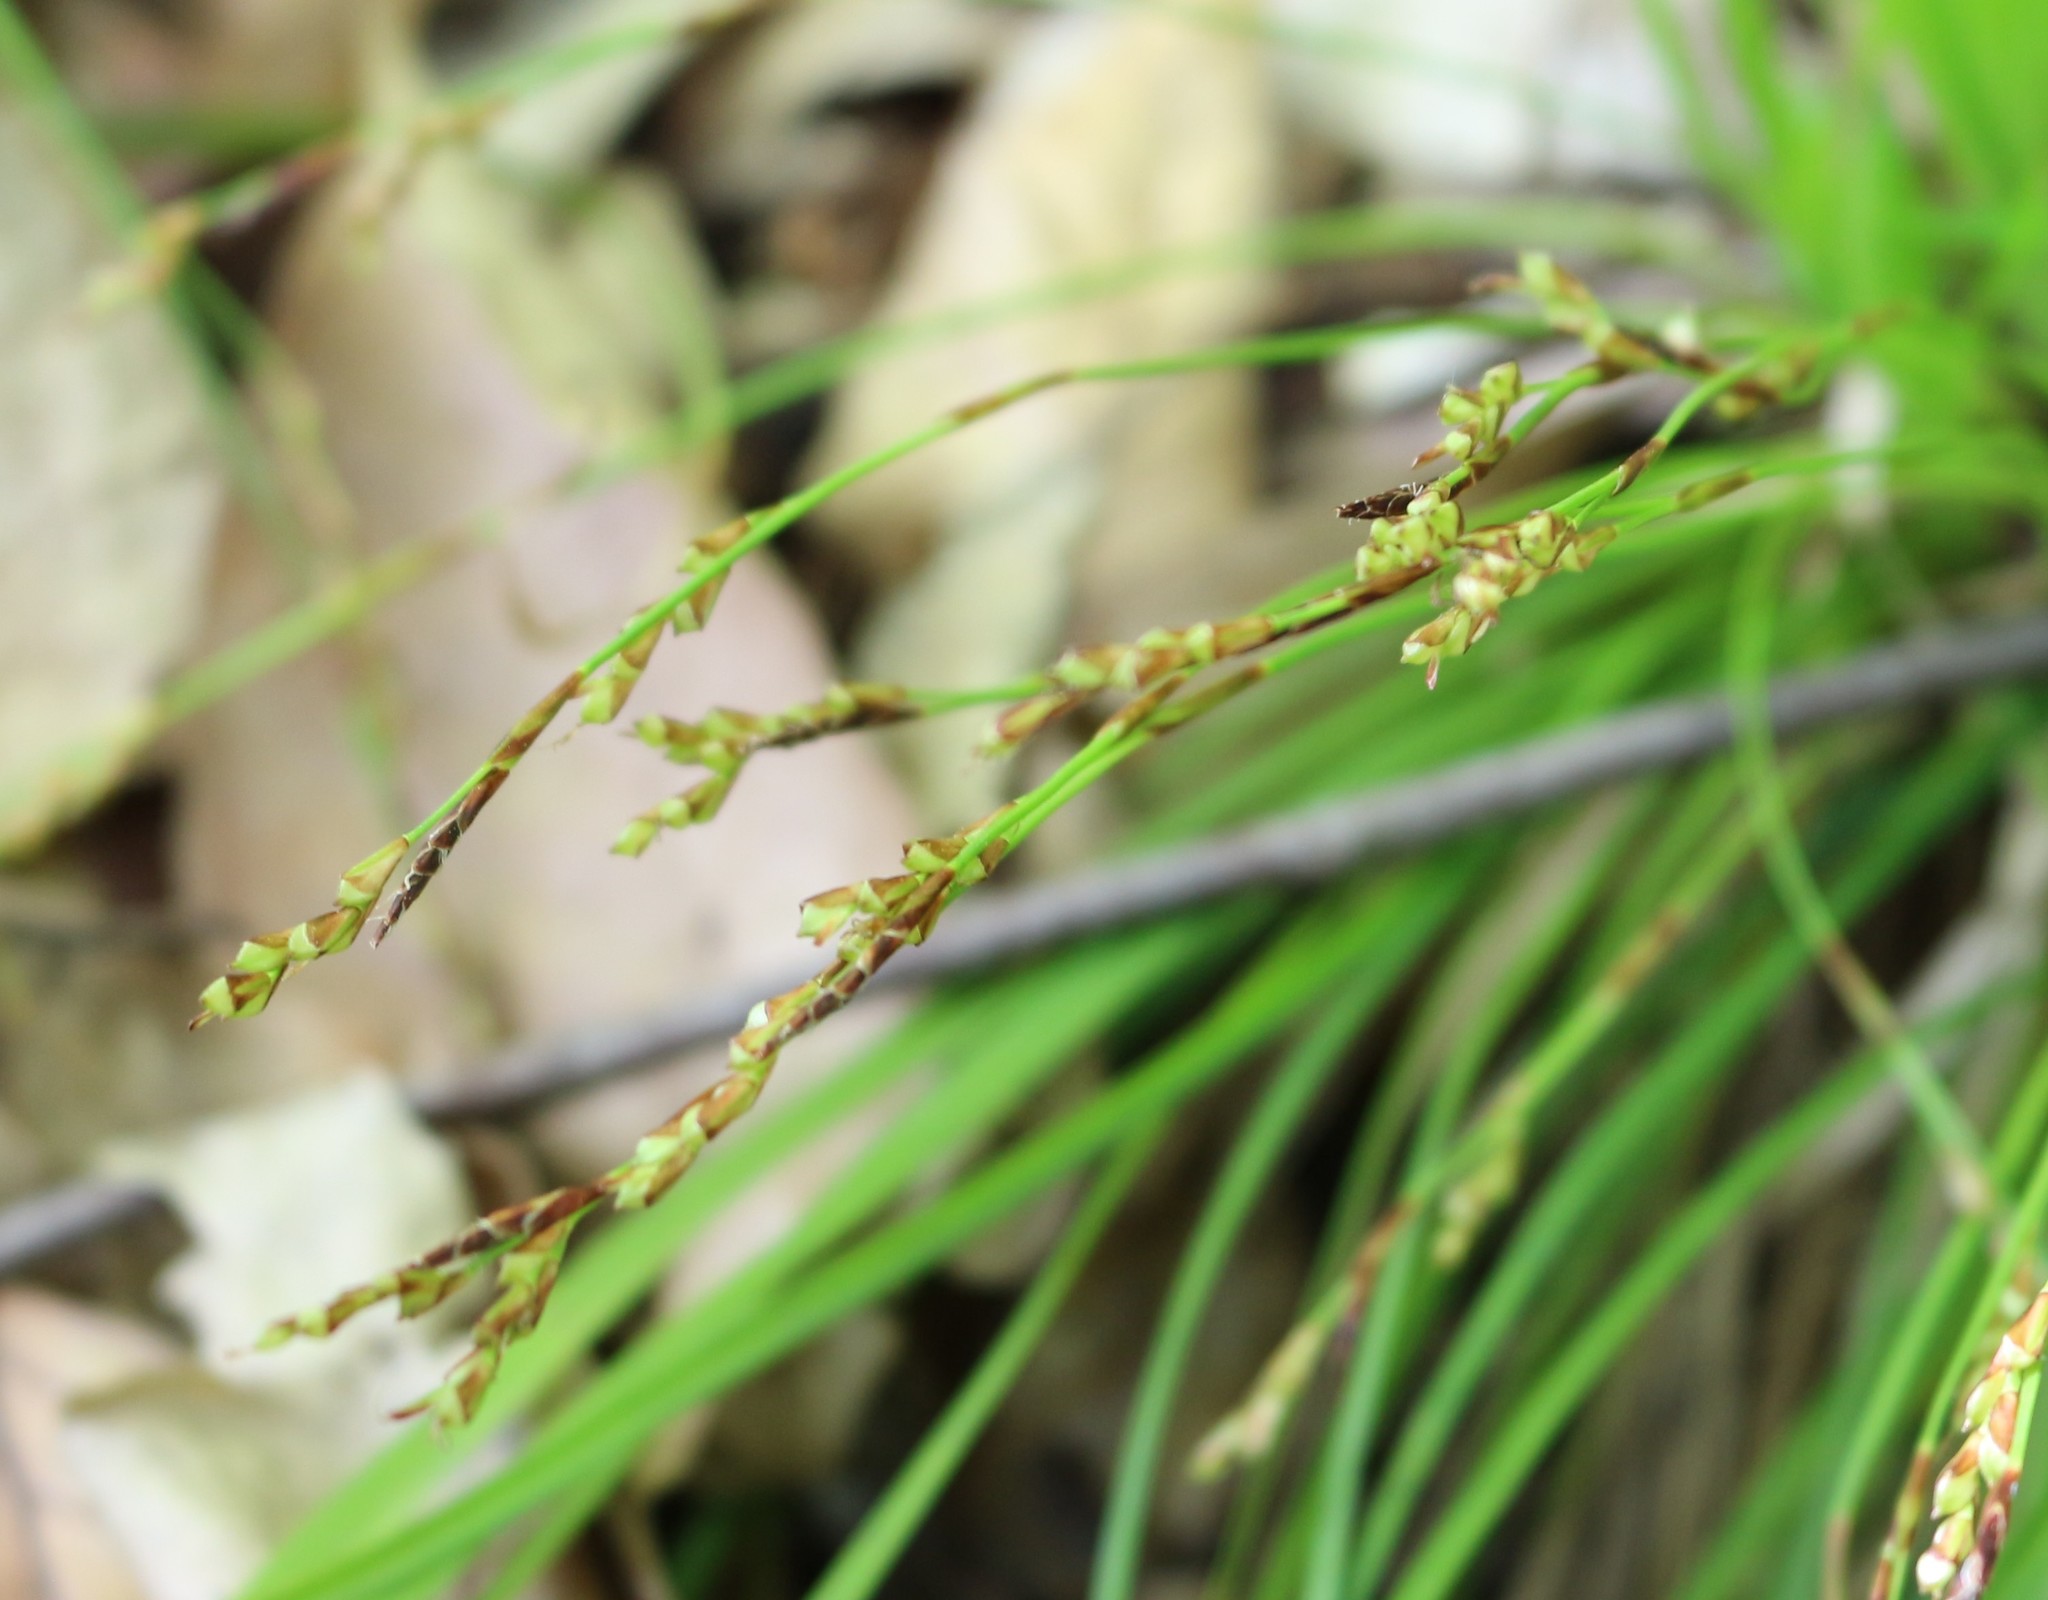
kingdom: Plantae
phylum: Tracheophyta
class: Liliopsida
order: Poales
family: Cyperaceae
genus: Carex
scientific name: Carex digitata
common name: Fingered sedge
